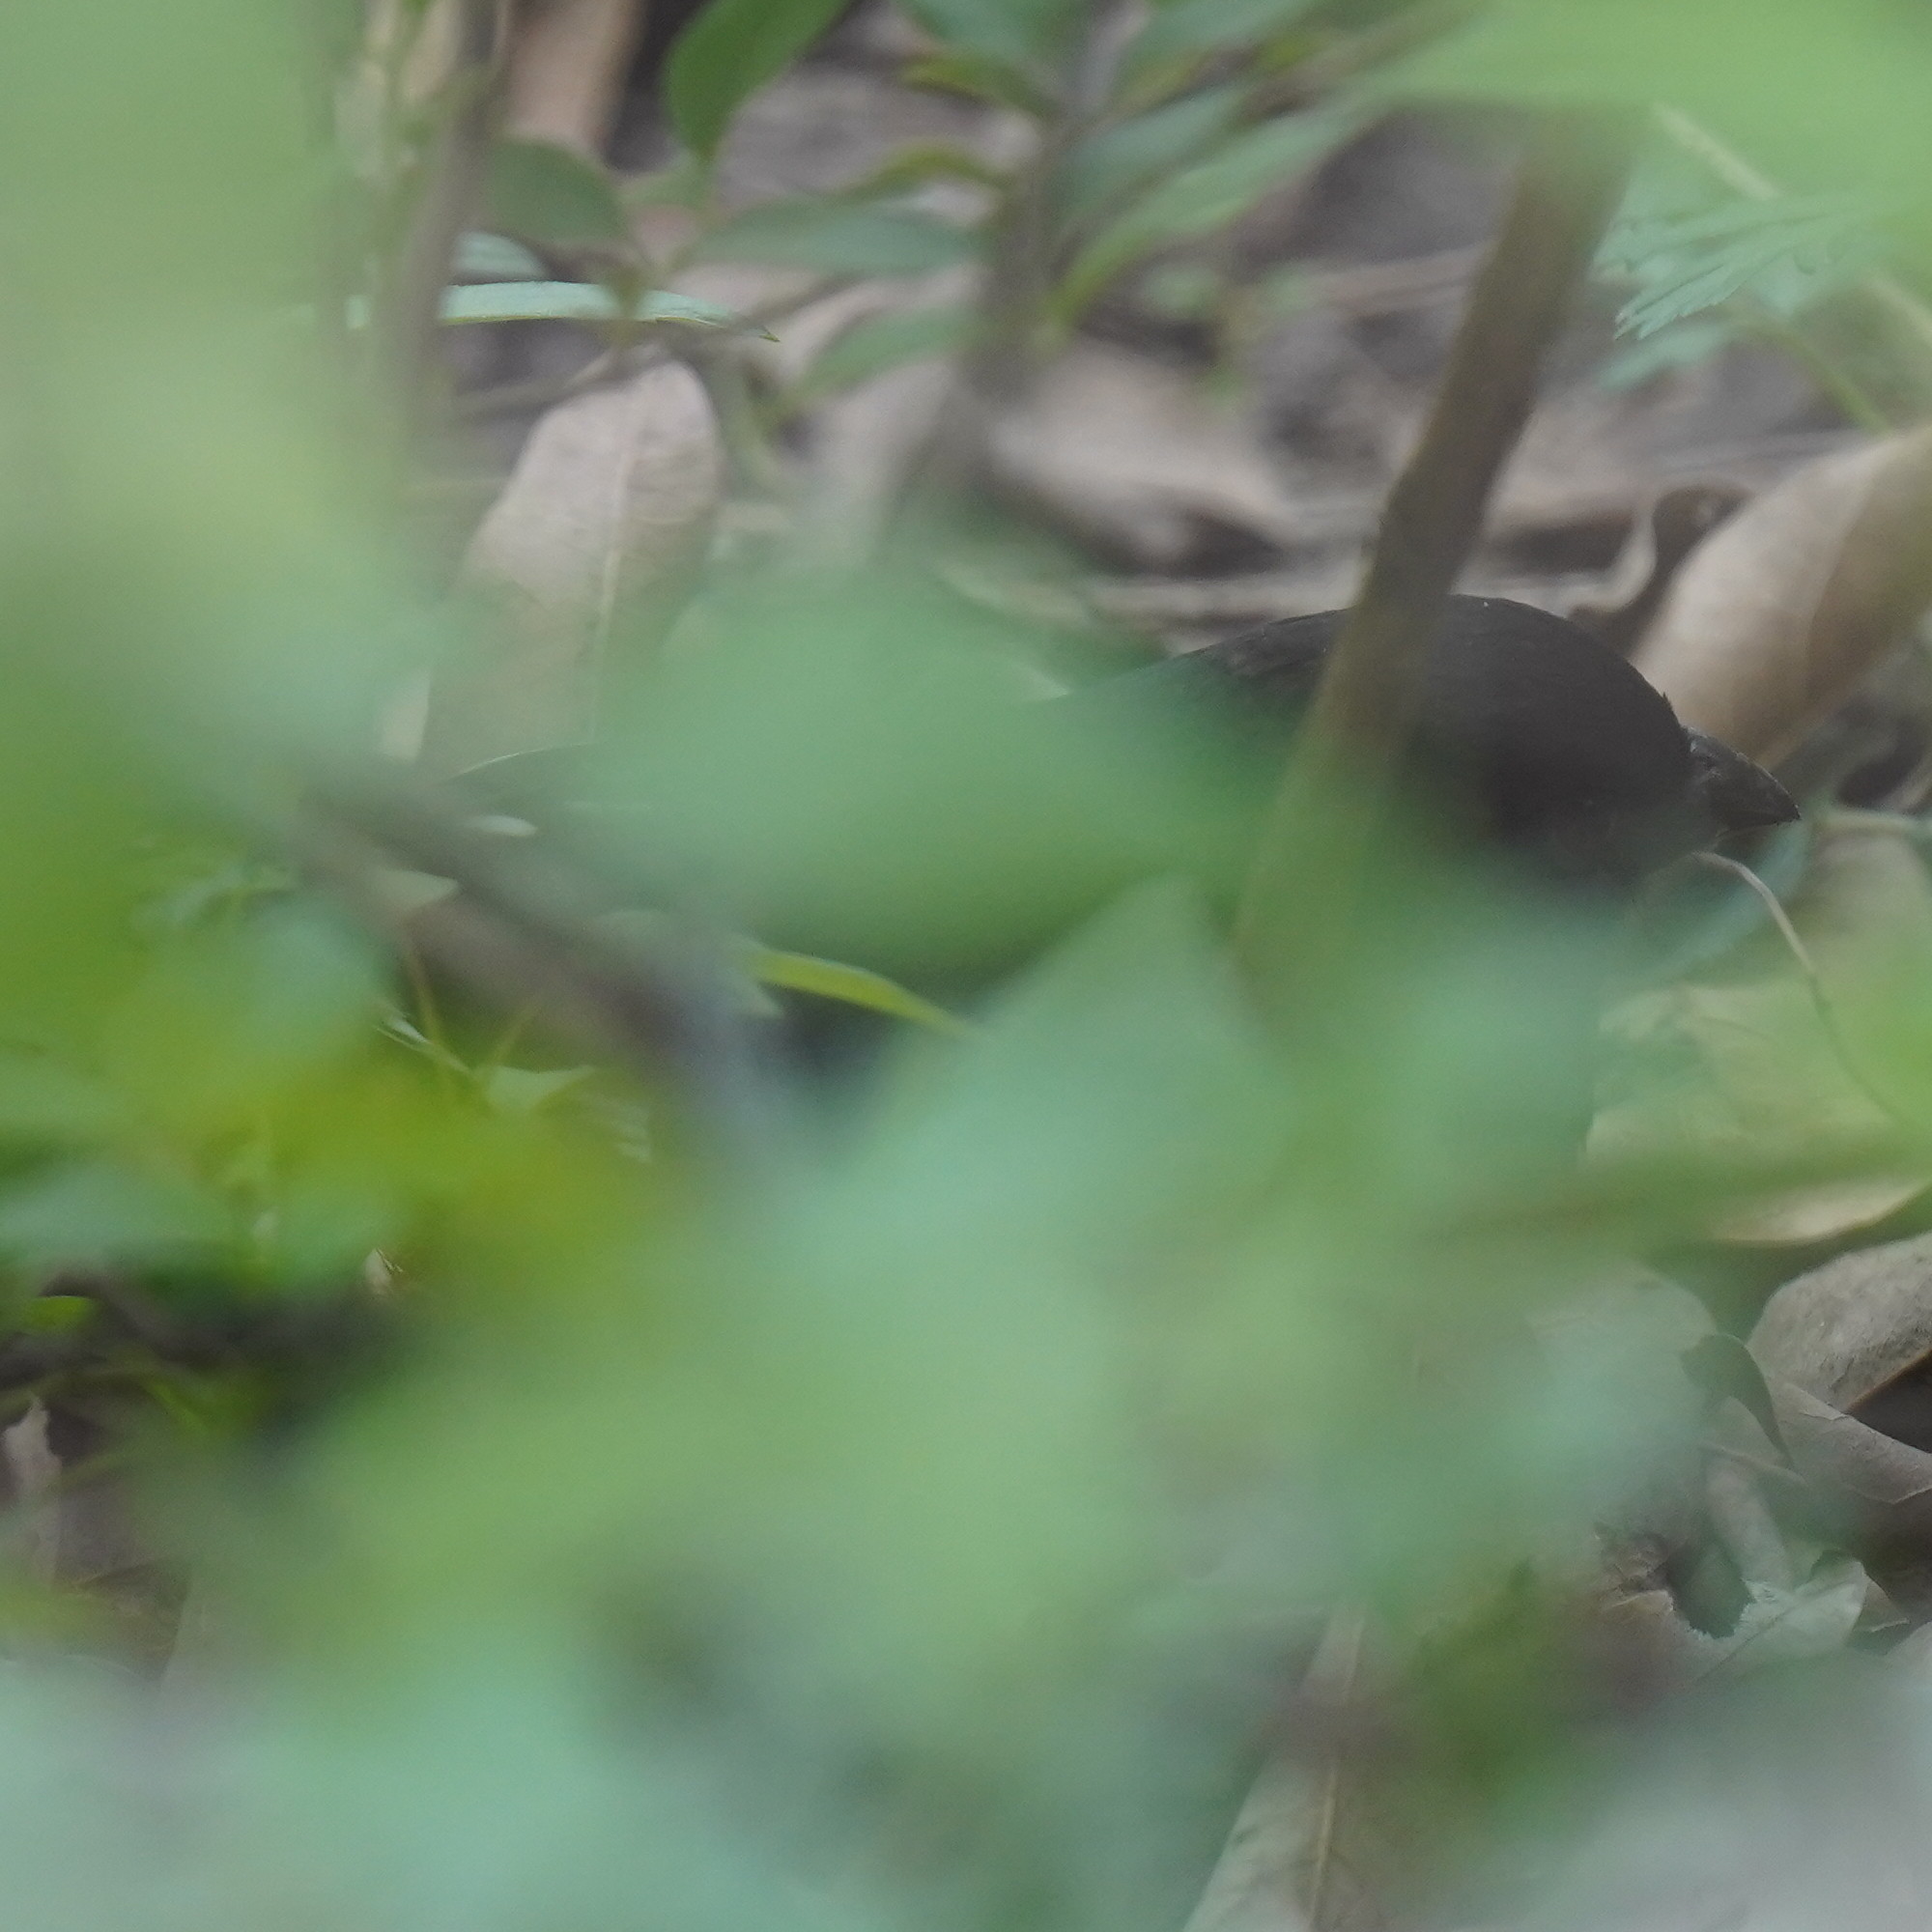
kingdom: Animalia
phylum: Chordata
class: Aves
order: Passeriformes
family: Passerellidae
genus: Pipilo
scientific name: Pipilo erythrophthalmus
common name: Eastern towhee
